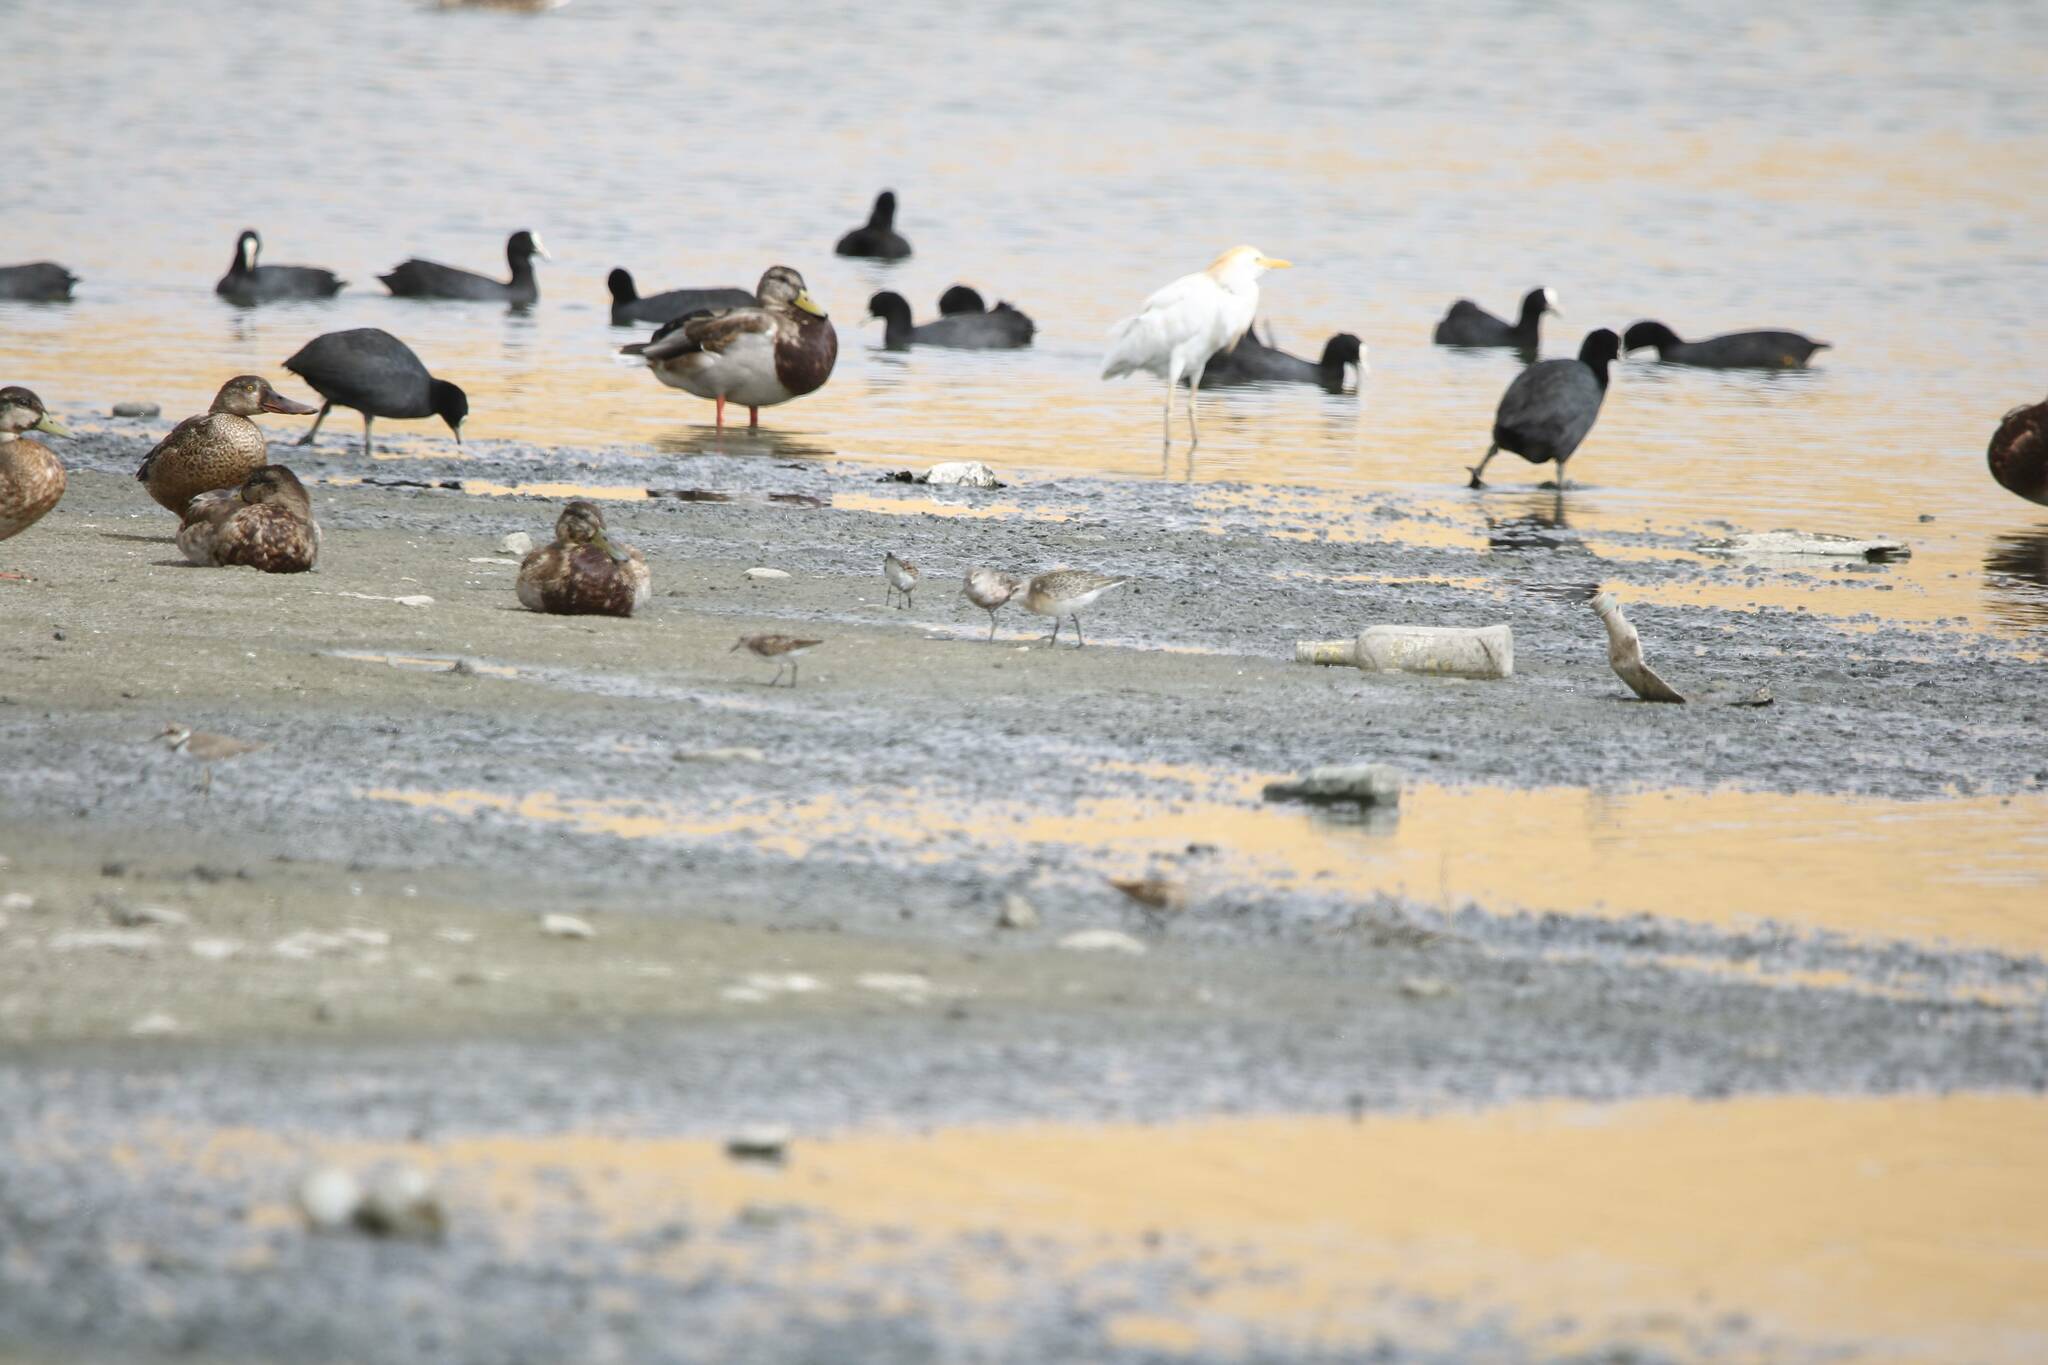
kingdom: Animalia
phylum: Chordata
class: Aves
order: Charadriiformes
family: Scolopacidae
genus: Calidris
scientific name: Calidris minuta
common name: Little stint
